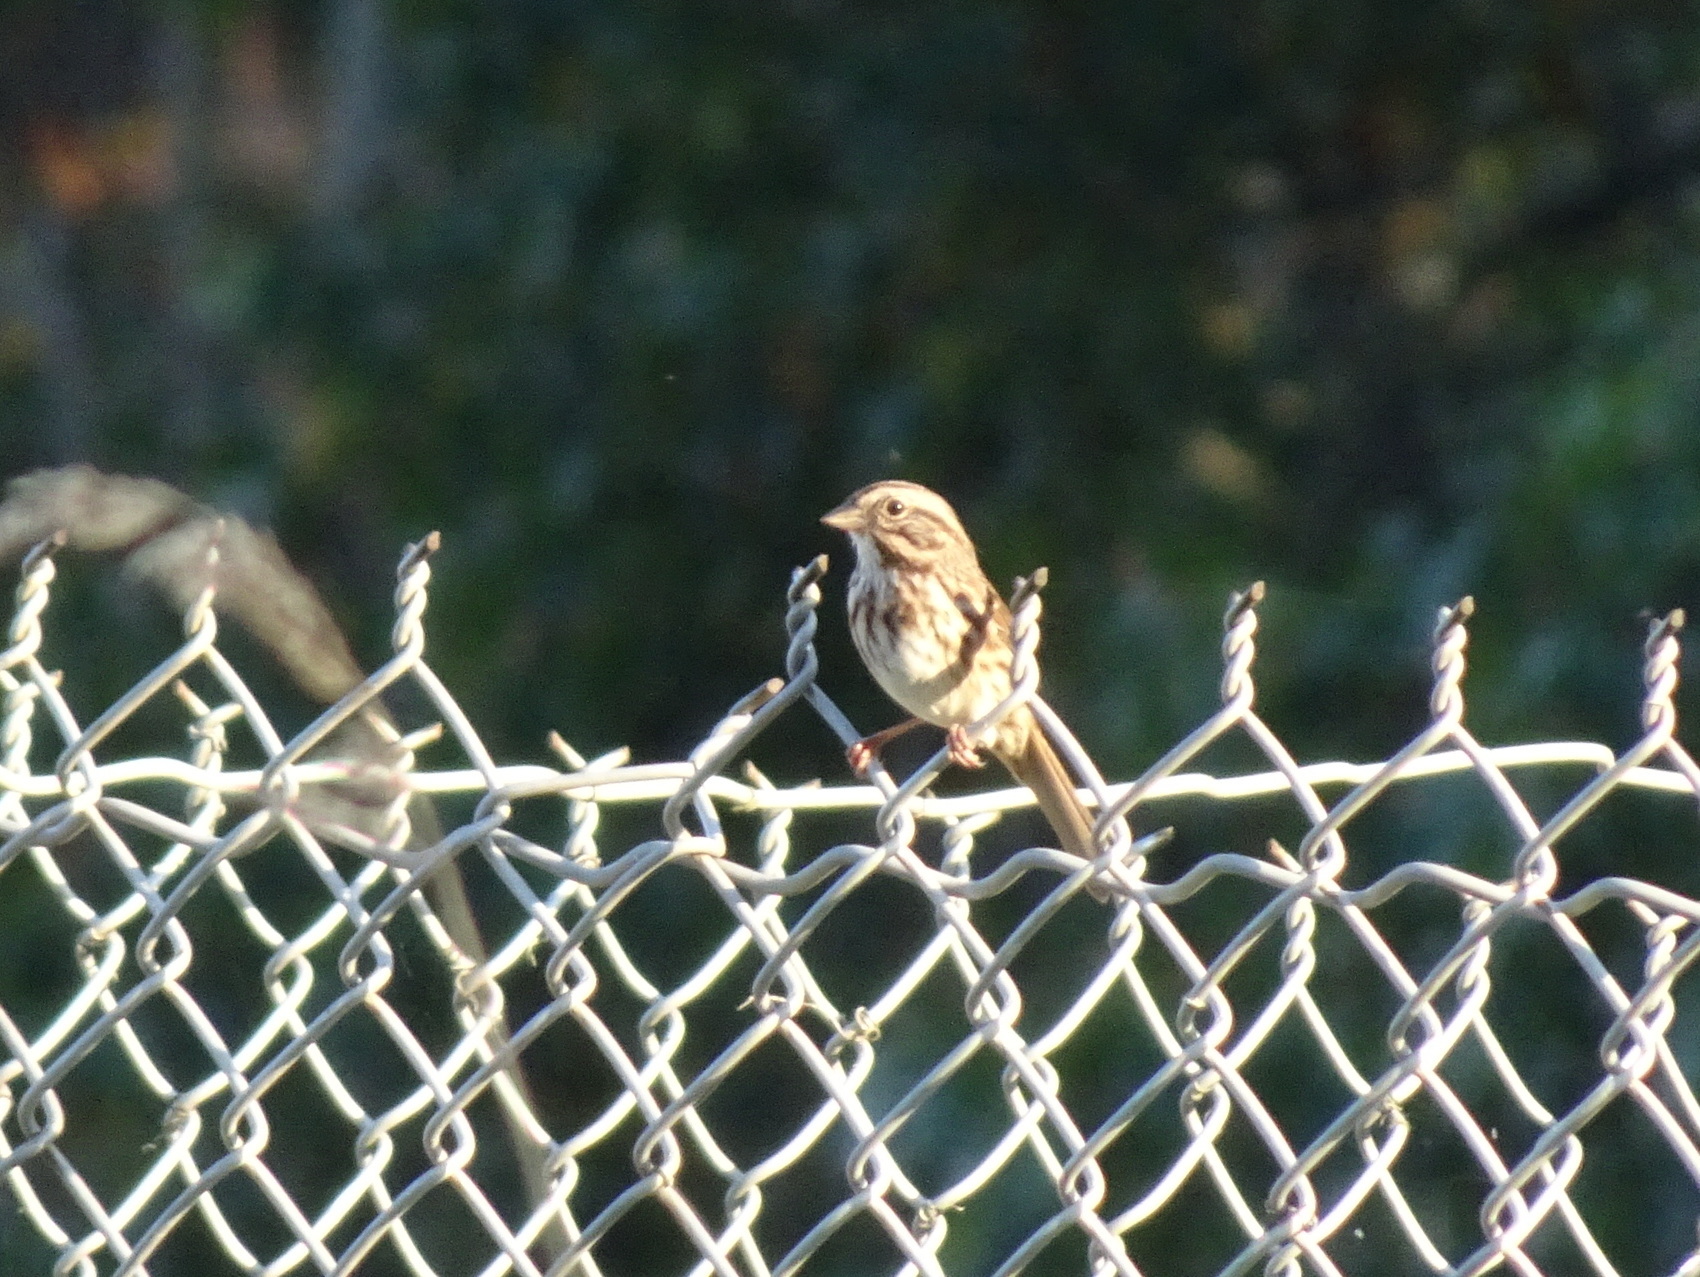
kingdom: Animalia
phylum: Chordata
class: Aves
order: Passeriformes
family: Passerellidae
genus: Melospiza
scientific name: Melospiza melodia
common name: Song sparrow
